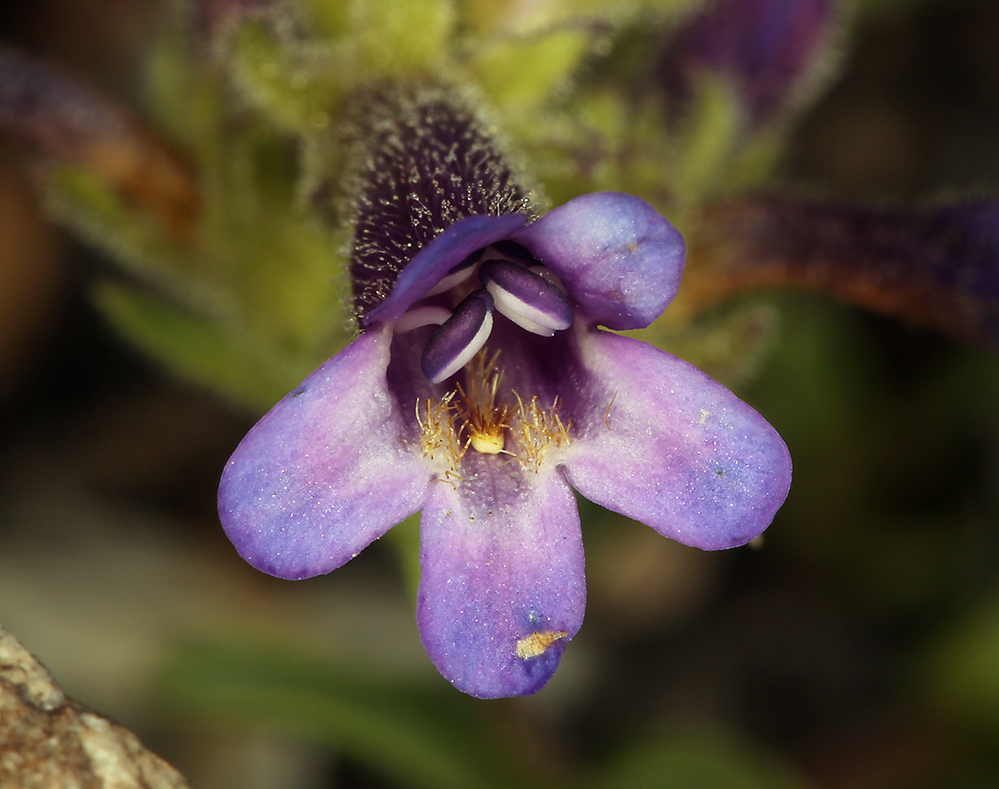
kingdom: Plantae
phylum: Tracheophyta
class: Magnoliopsida
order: Lamiales
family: Plantaginaceae
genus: Penstemon
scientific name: Penstemon heterodoxus
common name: Sierran penstemon
